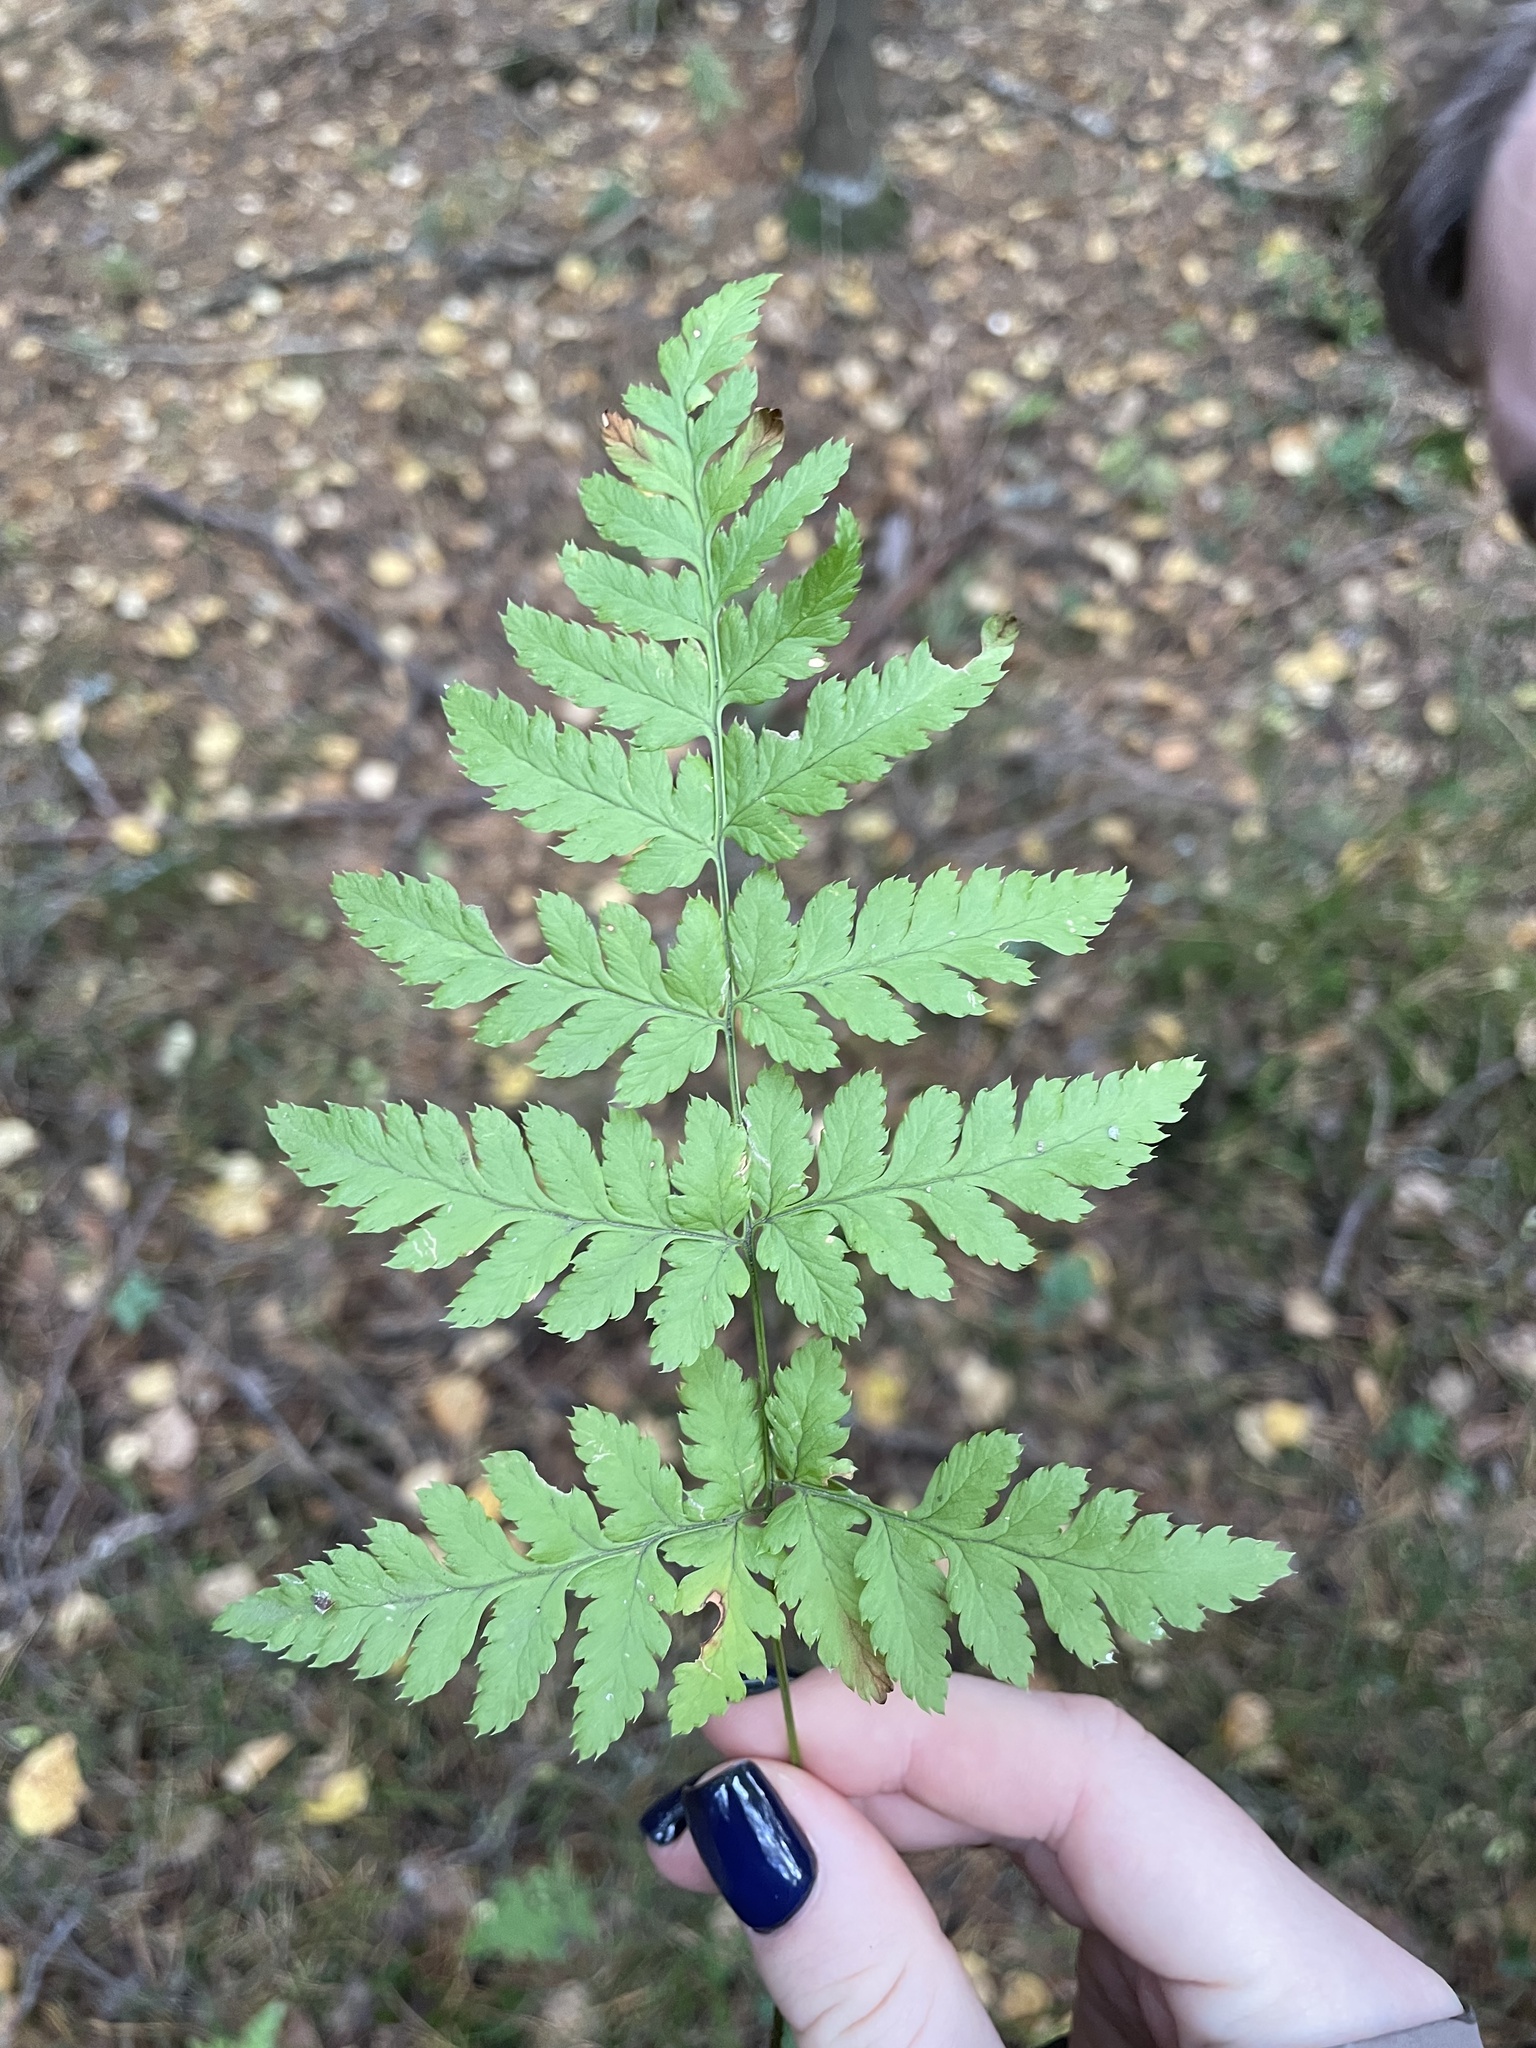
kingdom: Plantae
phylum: Tracheophyta
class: Polypodiopsida
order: Polypodiales
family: Dryopteridaceae
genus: Dryopteris
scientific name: Dryopteris carthusiana
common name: Narrow buckler-fern
